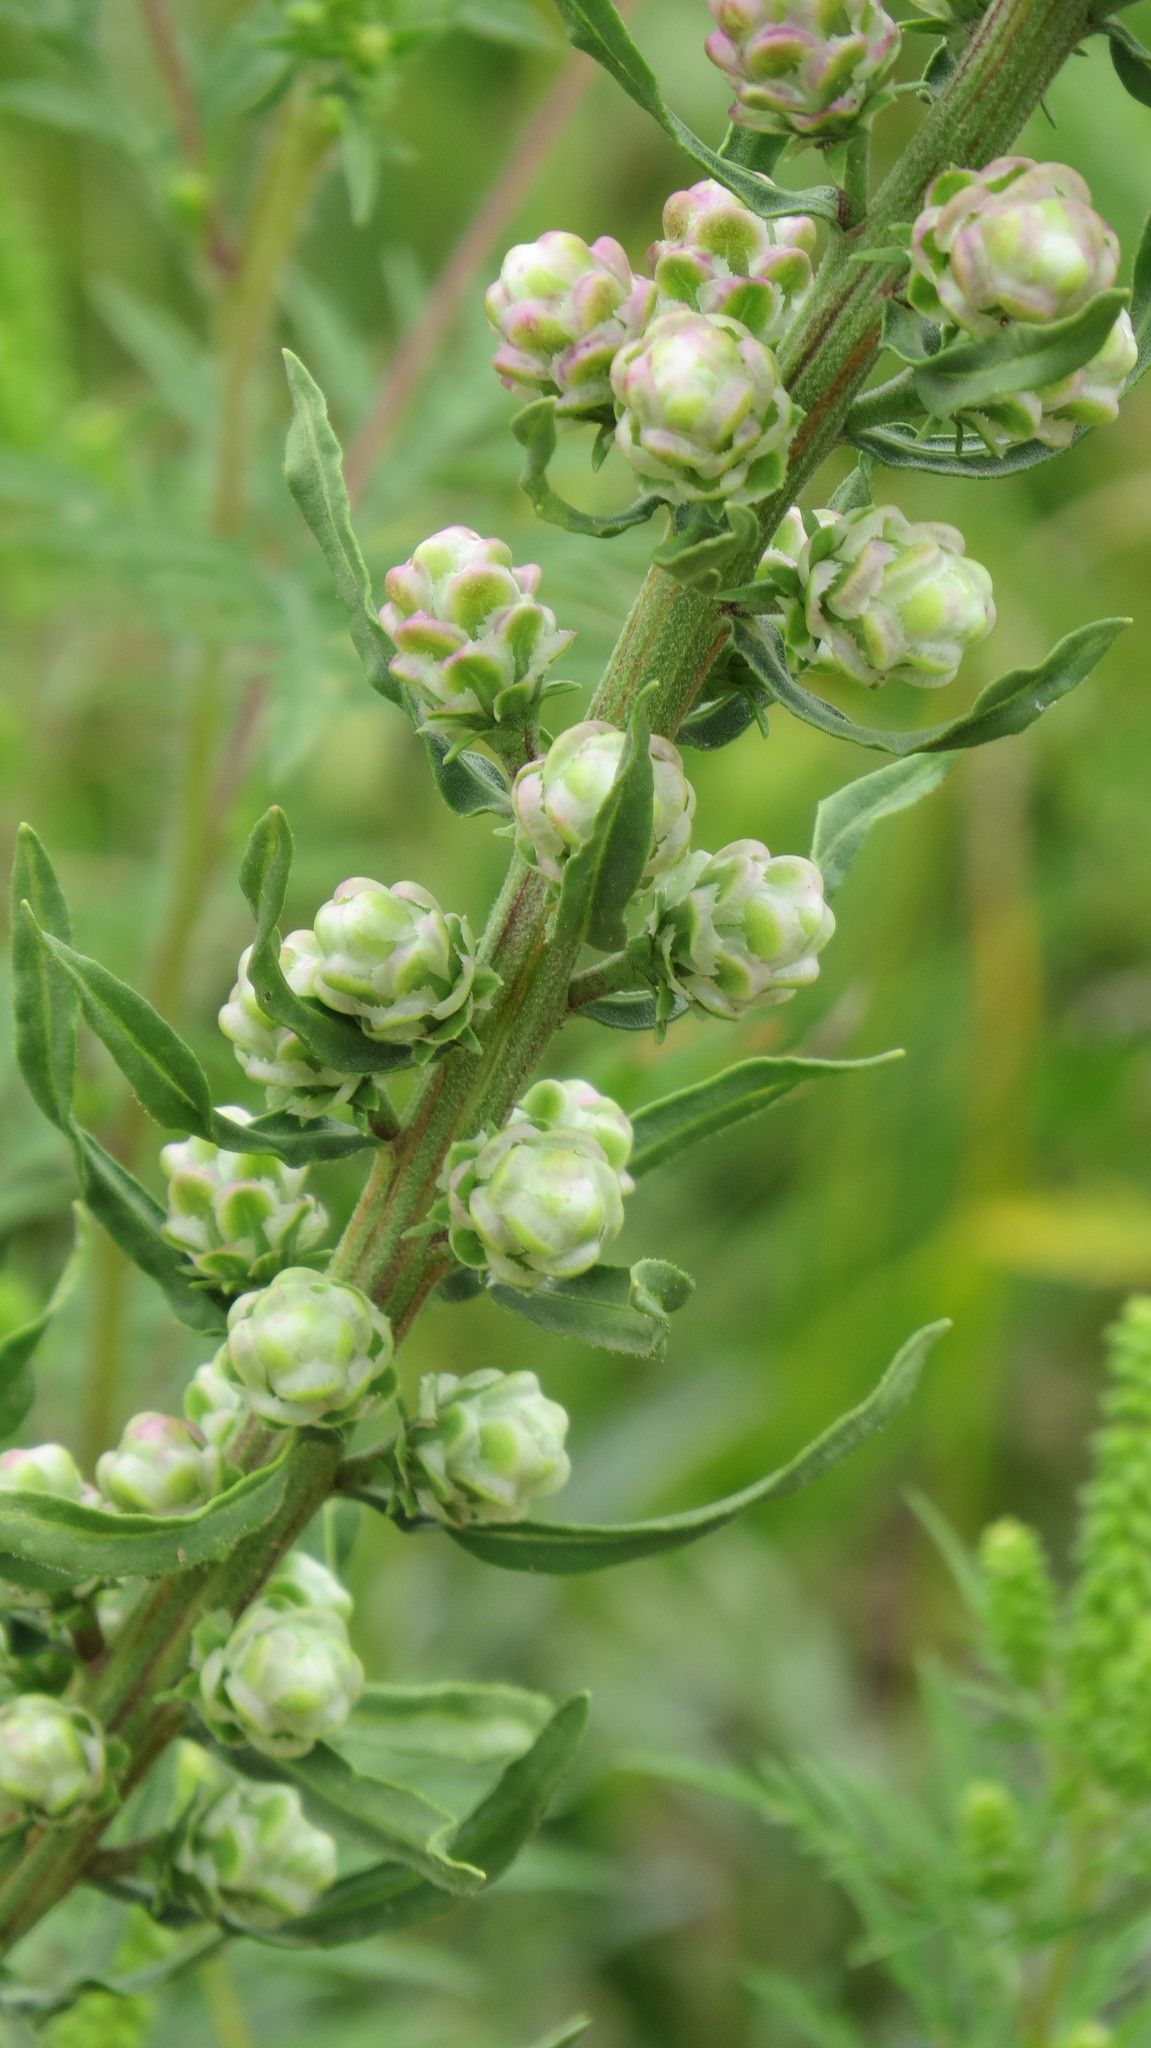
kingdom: Plantae
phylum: Tracheophyta
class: Magnoliopsida
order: Asterales
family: Asteraceae
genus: Liatris
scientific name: Liatris aspera
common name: Lacerate blazing-star
